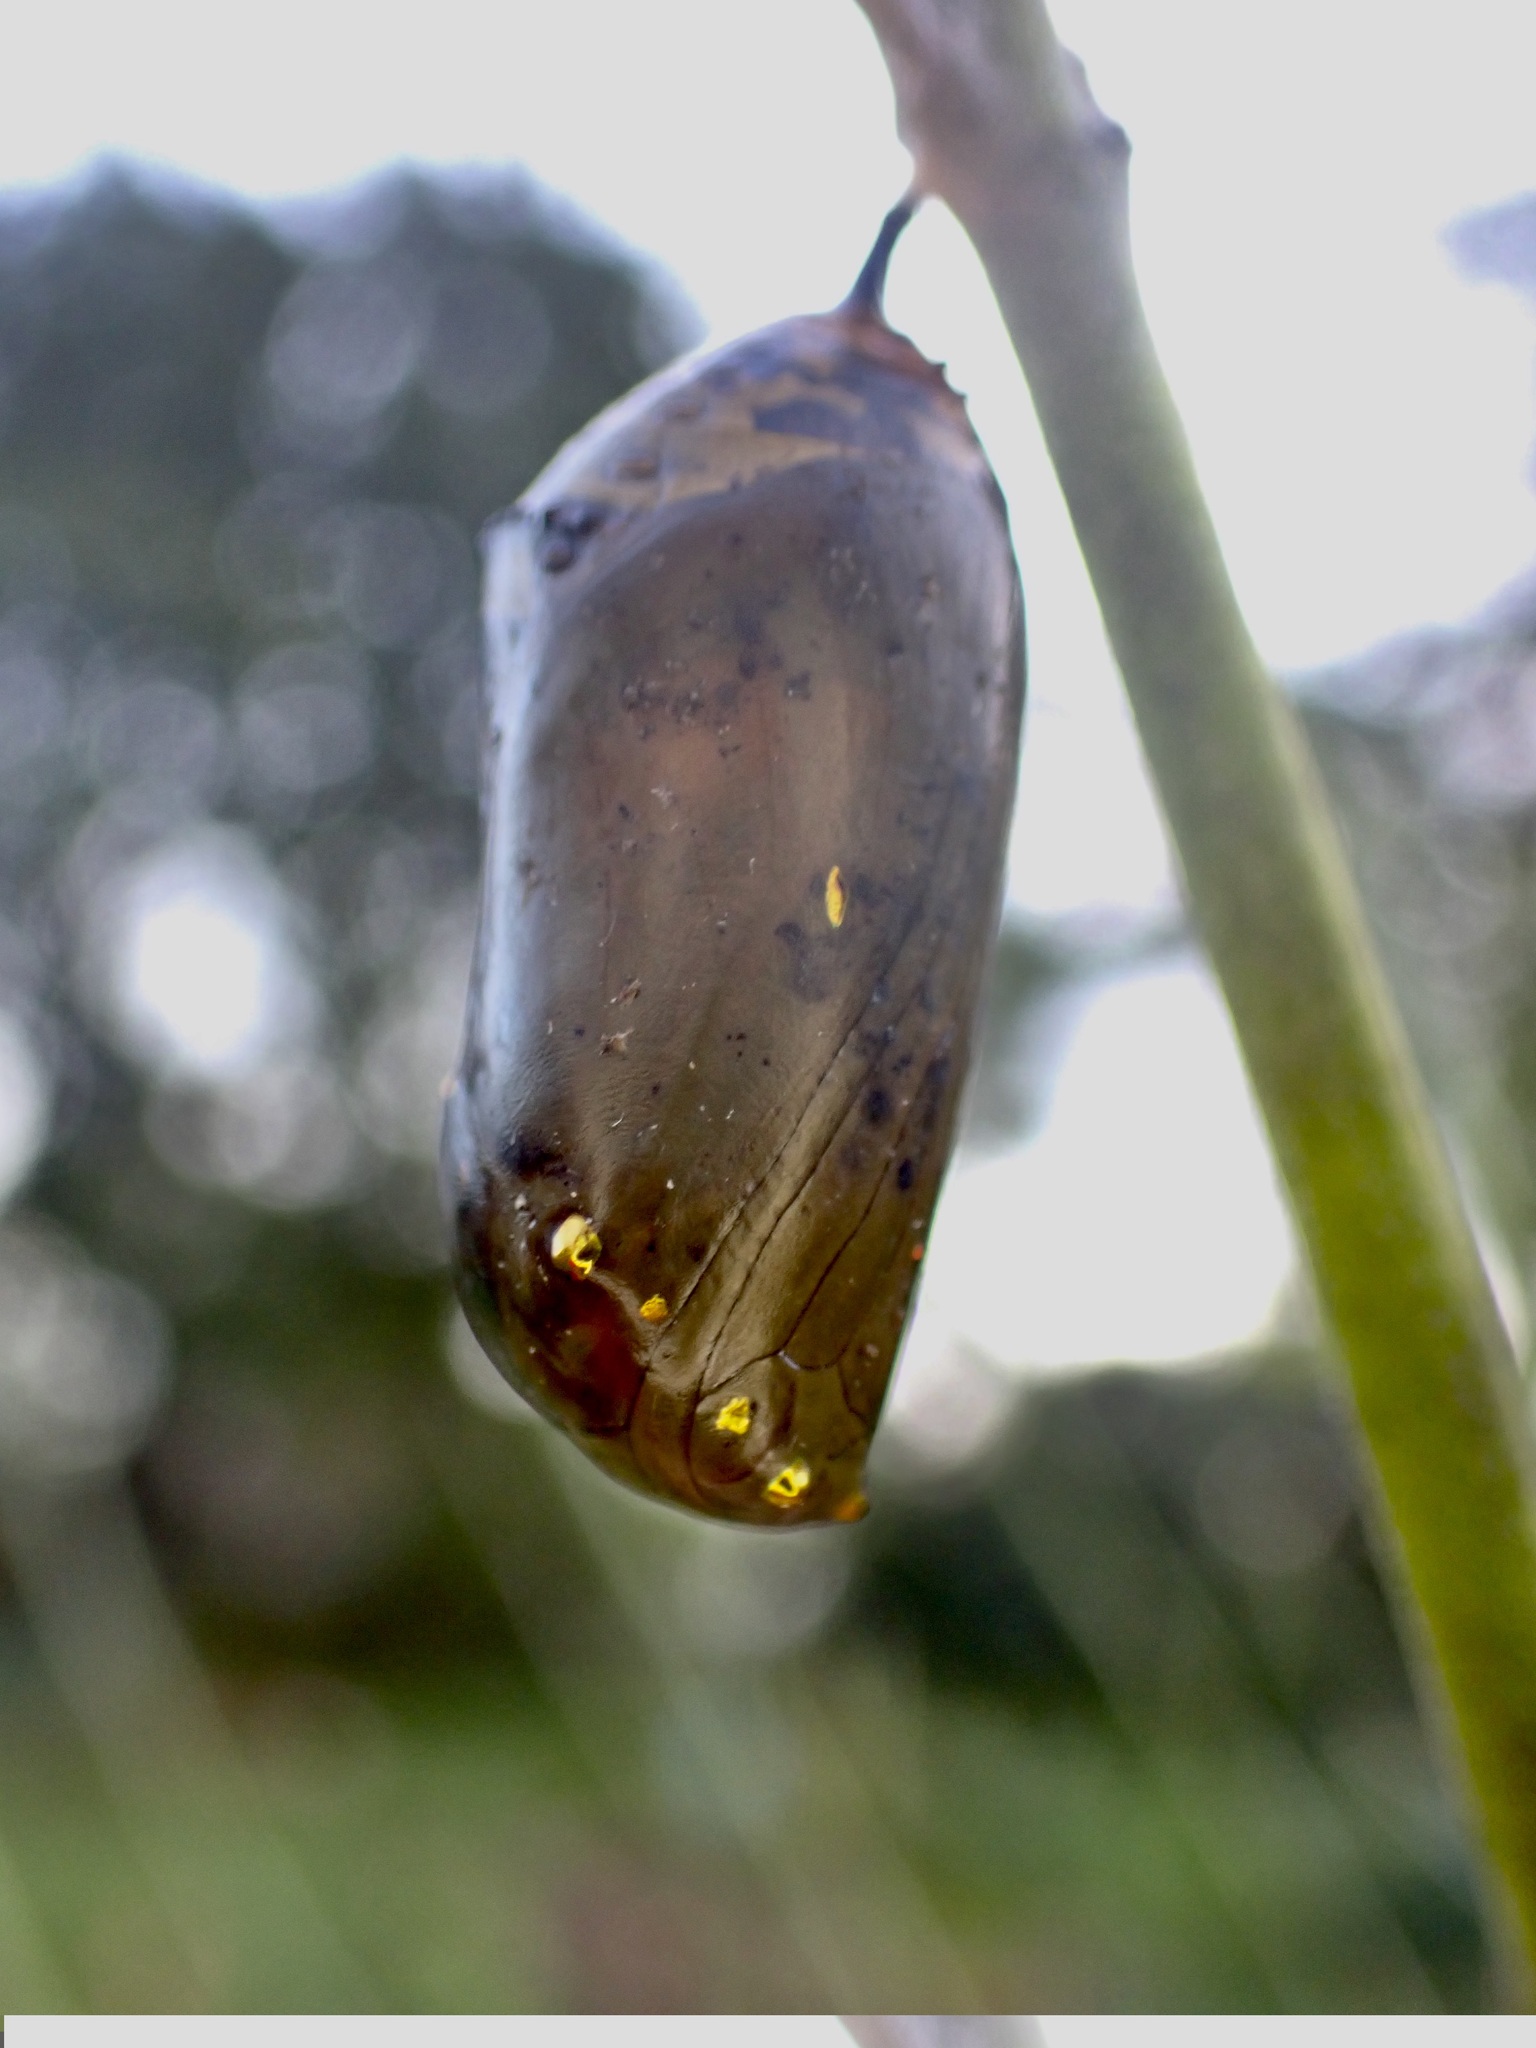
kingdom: Animalia
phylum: Arthropoda
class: Insecta
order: Lepidoptera
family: Nymphalidae
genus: Danaus
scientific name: Danaus plexippus
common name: Monarch
